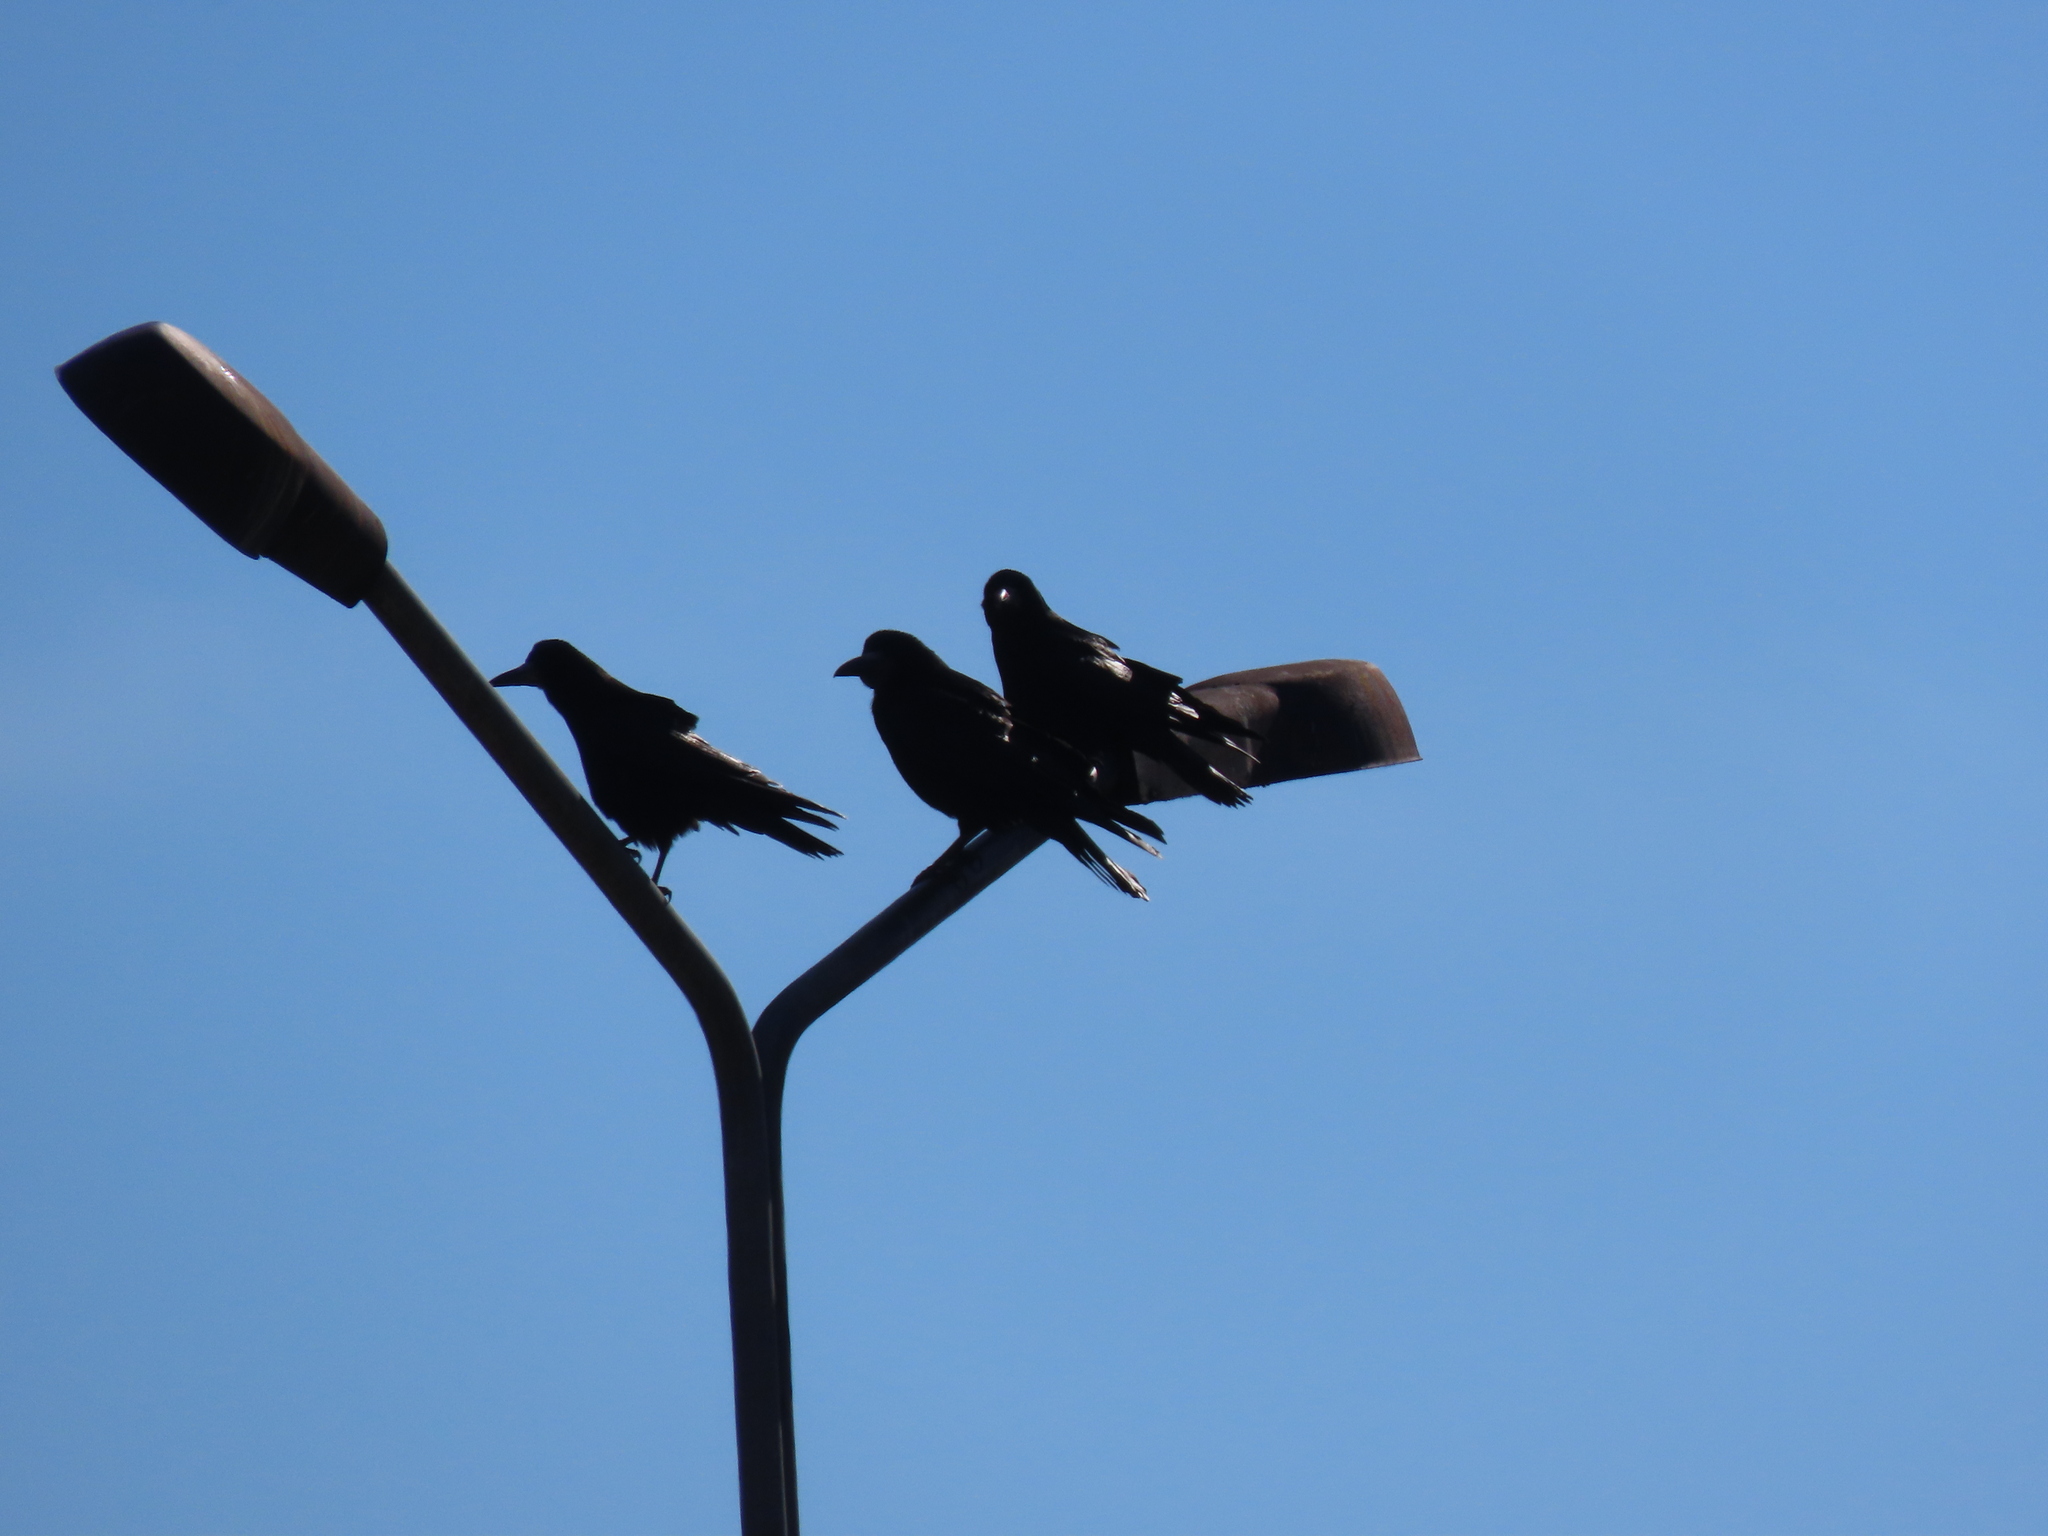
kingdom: Animalia
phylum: Chordata
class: Aves
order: Passeriformes
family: Corvidae
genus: Corvus
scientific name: Corvus frugilegus
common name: Rook
